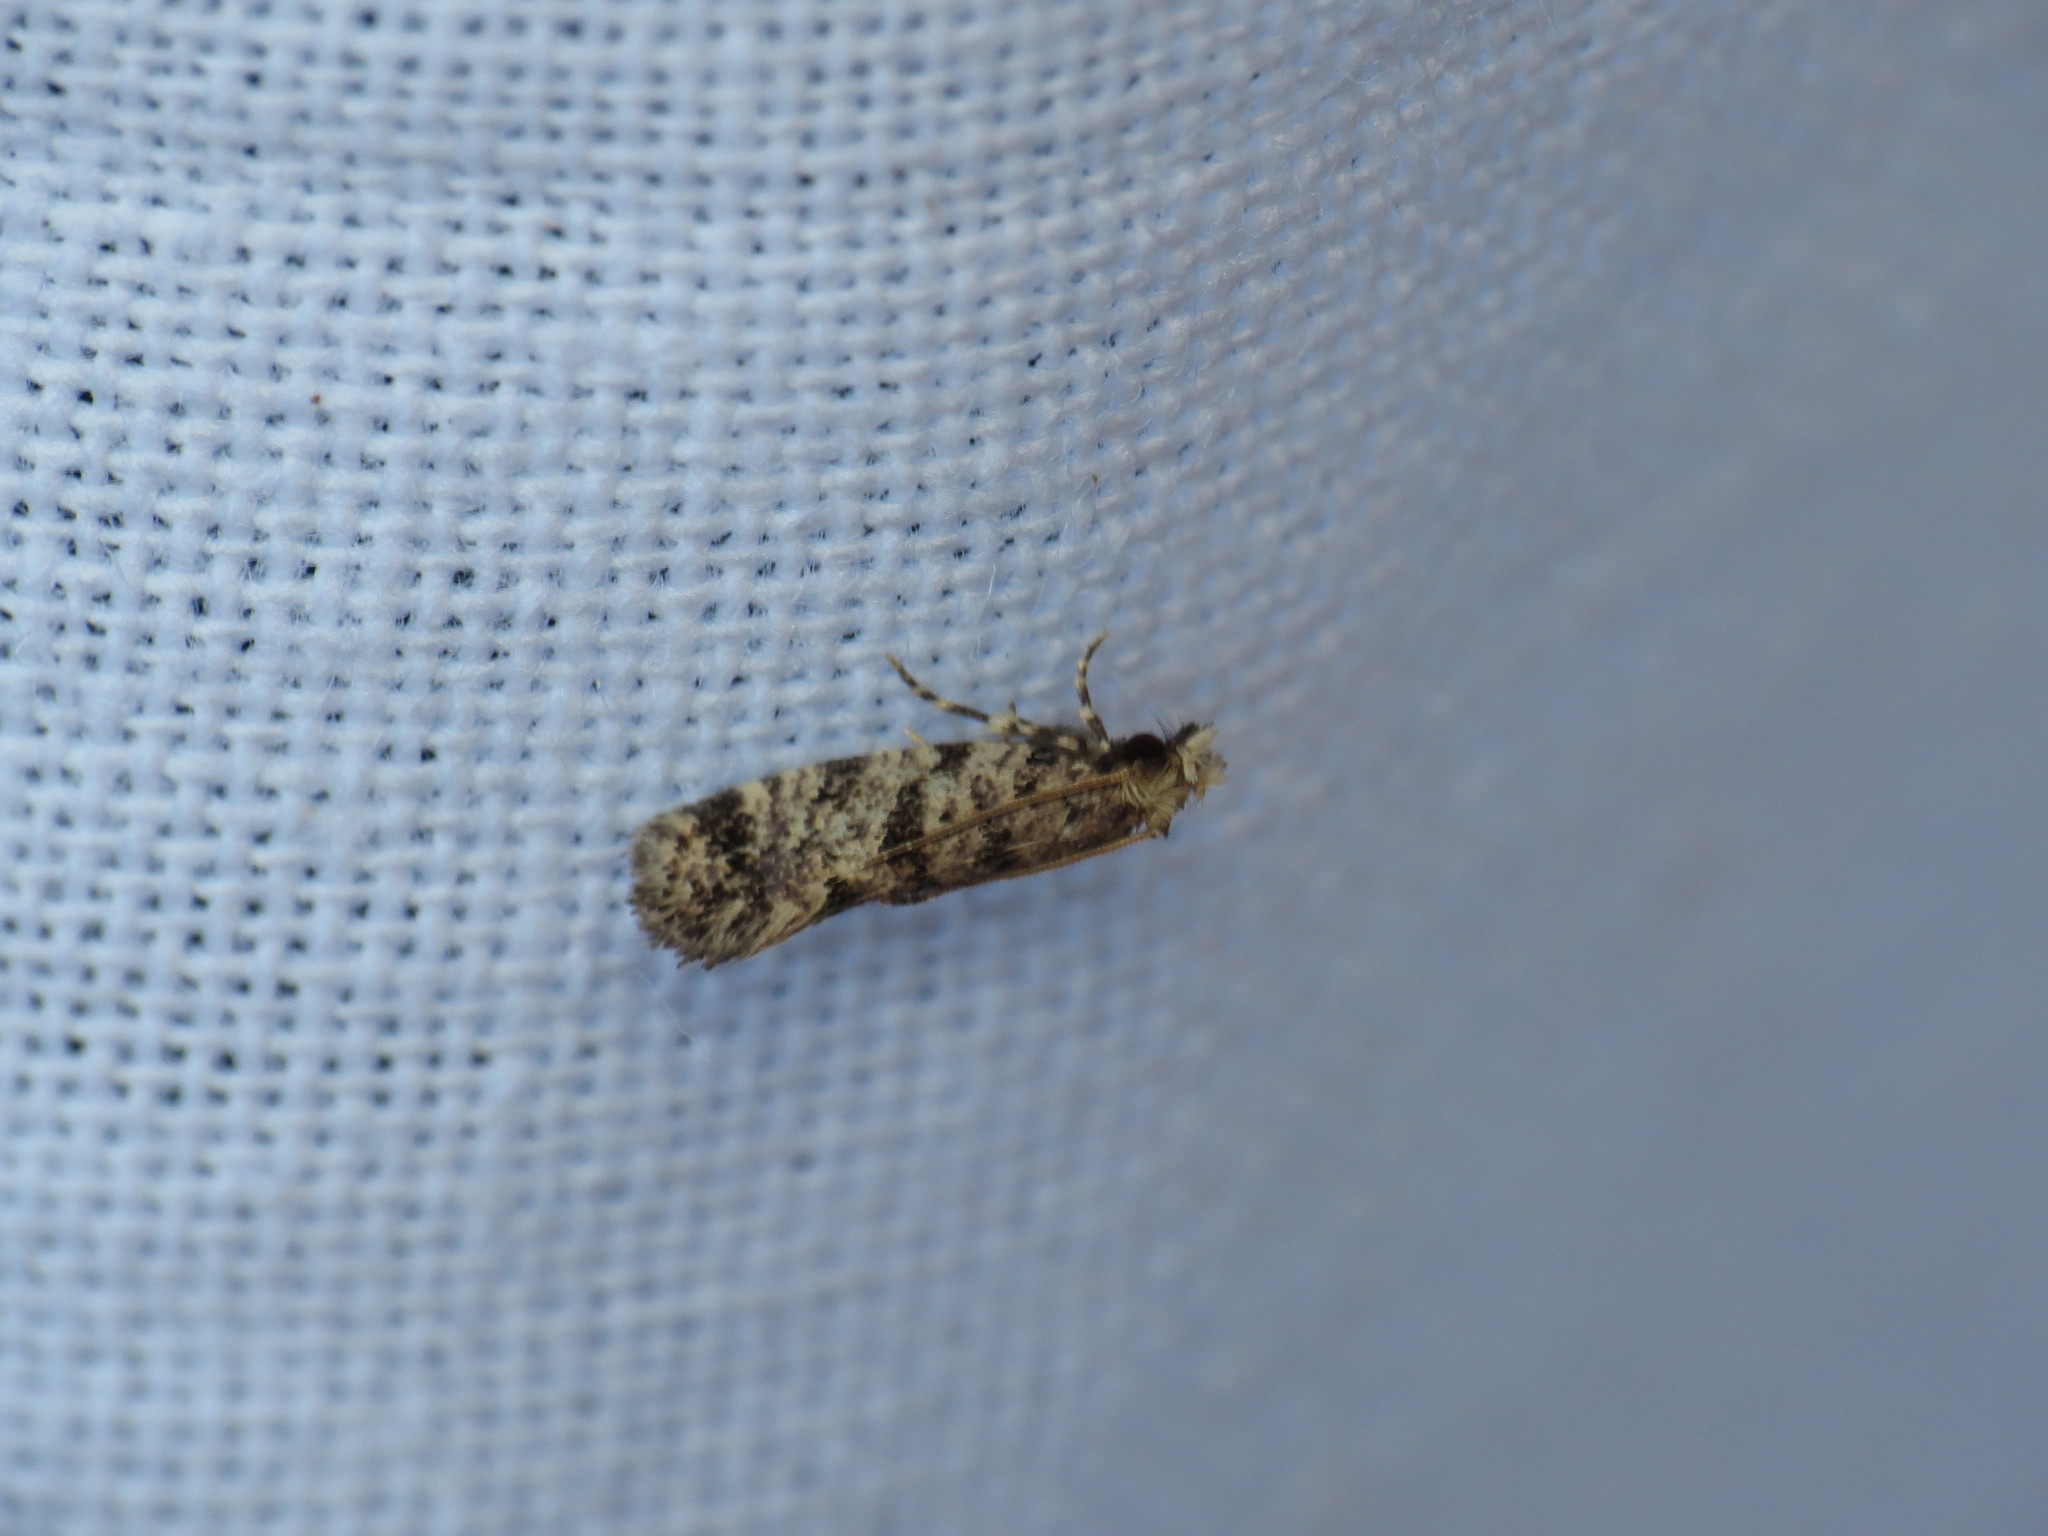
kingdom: Animalia
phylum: Arthropoda
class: Insecta
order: Lepidoptera
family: Tineidae
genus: Amydria
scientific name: Amydria
